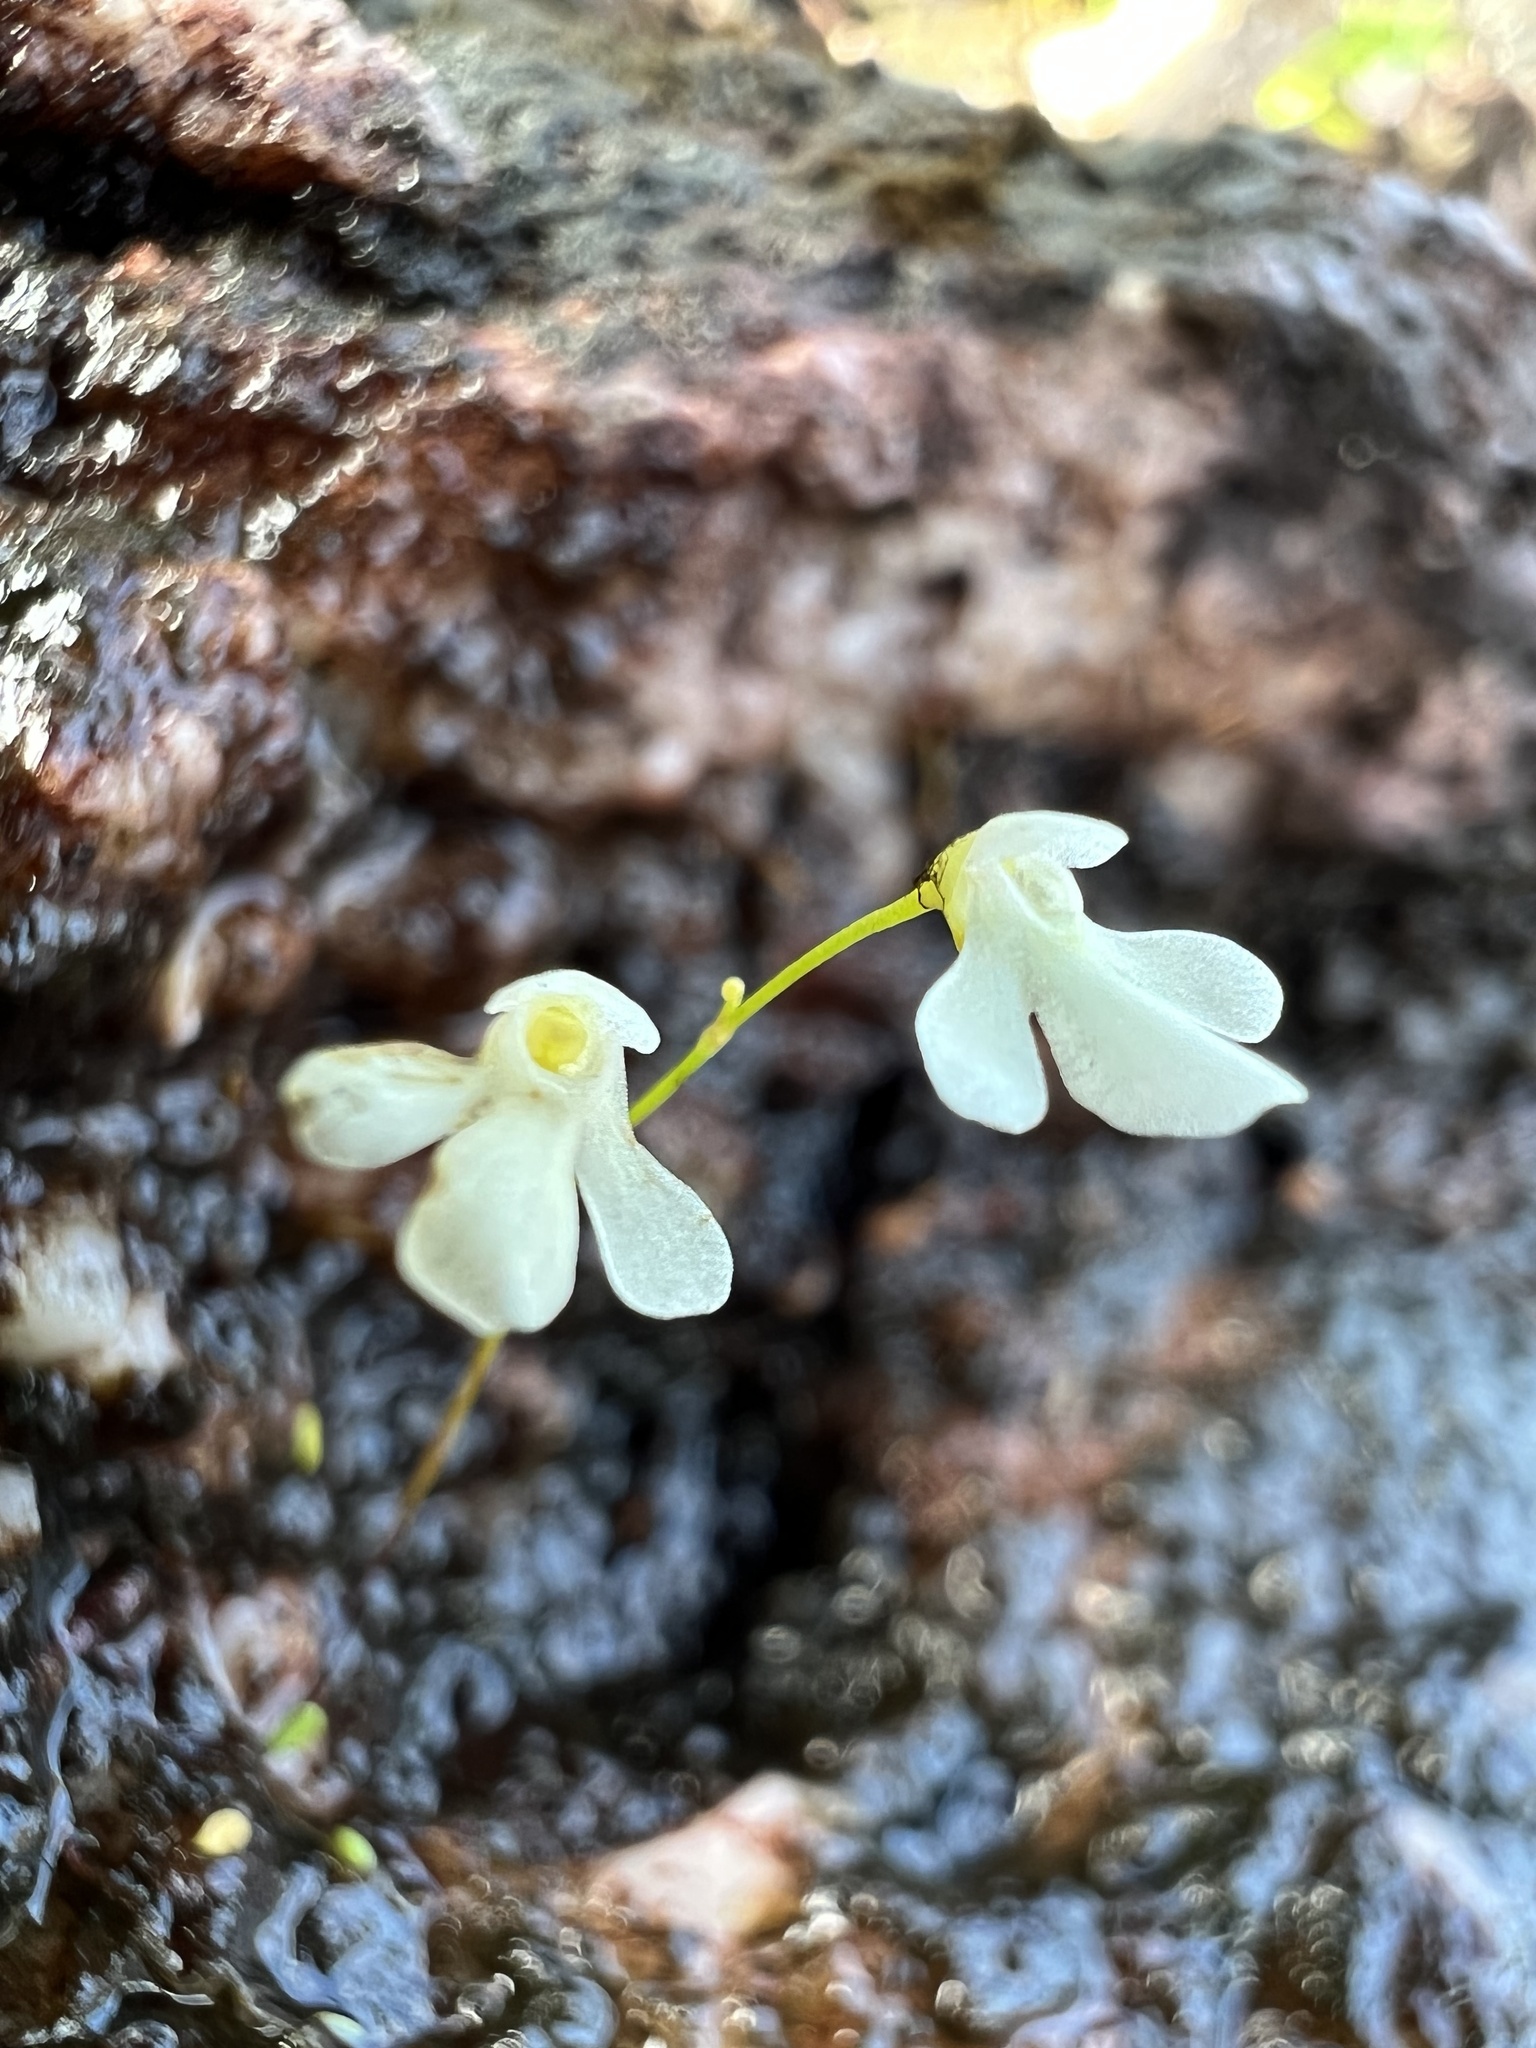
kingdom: Plantae
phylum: Tracheophyta
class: Magnoliopsida
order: Lamiales
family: Lentibulariaceae
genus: Utricularia
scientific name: Utricularia oliveriana
